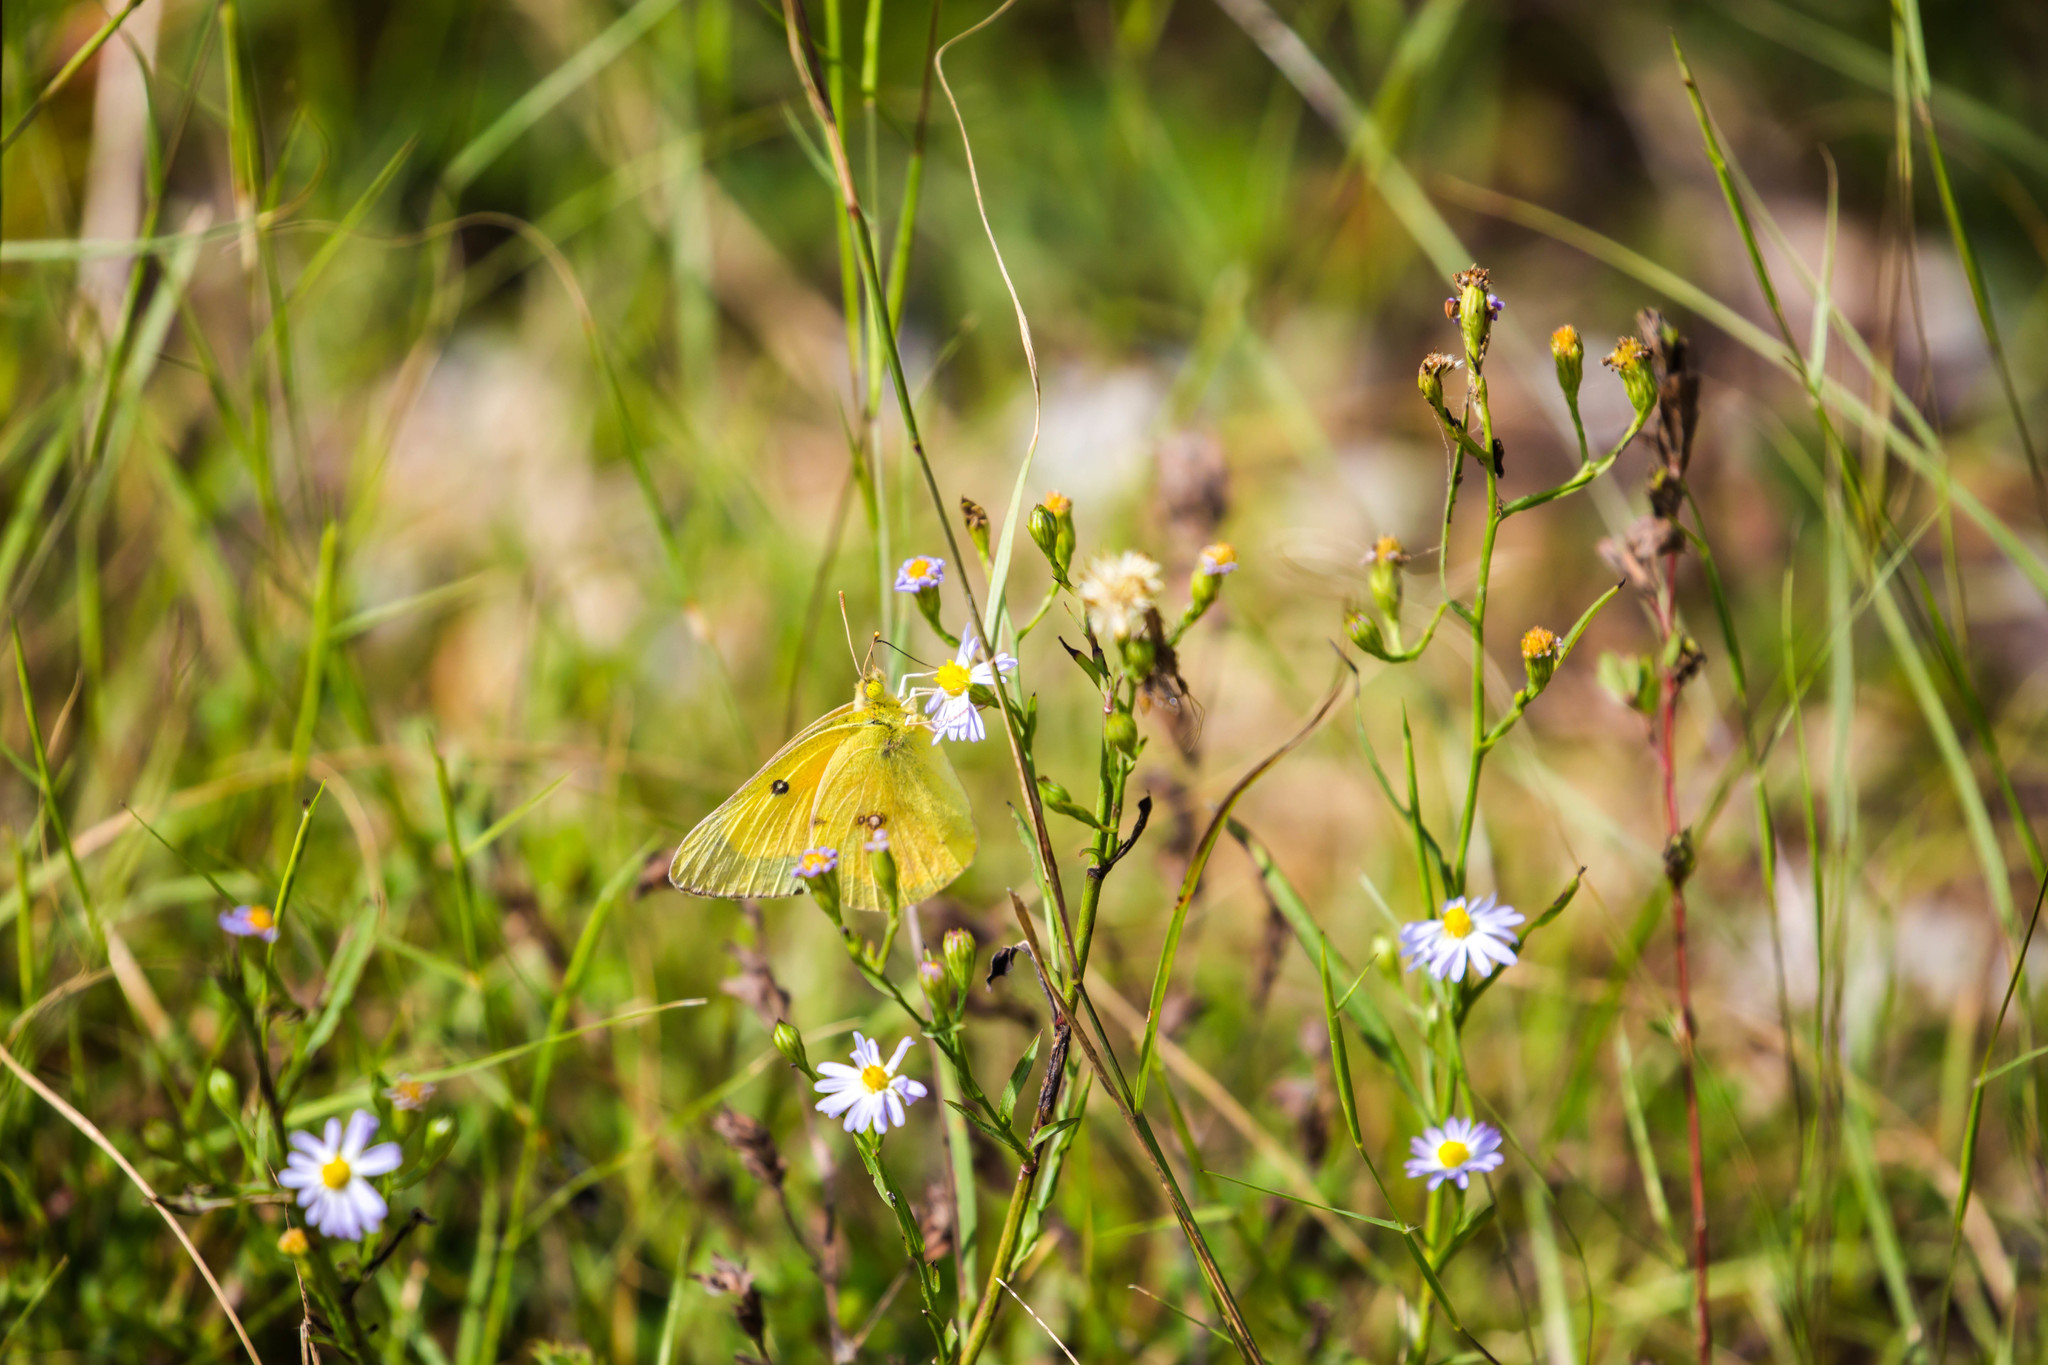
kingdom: Animalia
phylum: Arthropoda
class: Insecta
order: Lepidoptera
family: Pieridae
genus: Colias
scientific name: Colias eurytheme
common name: Alfalfa butterfly
